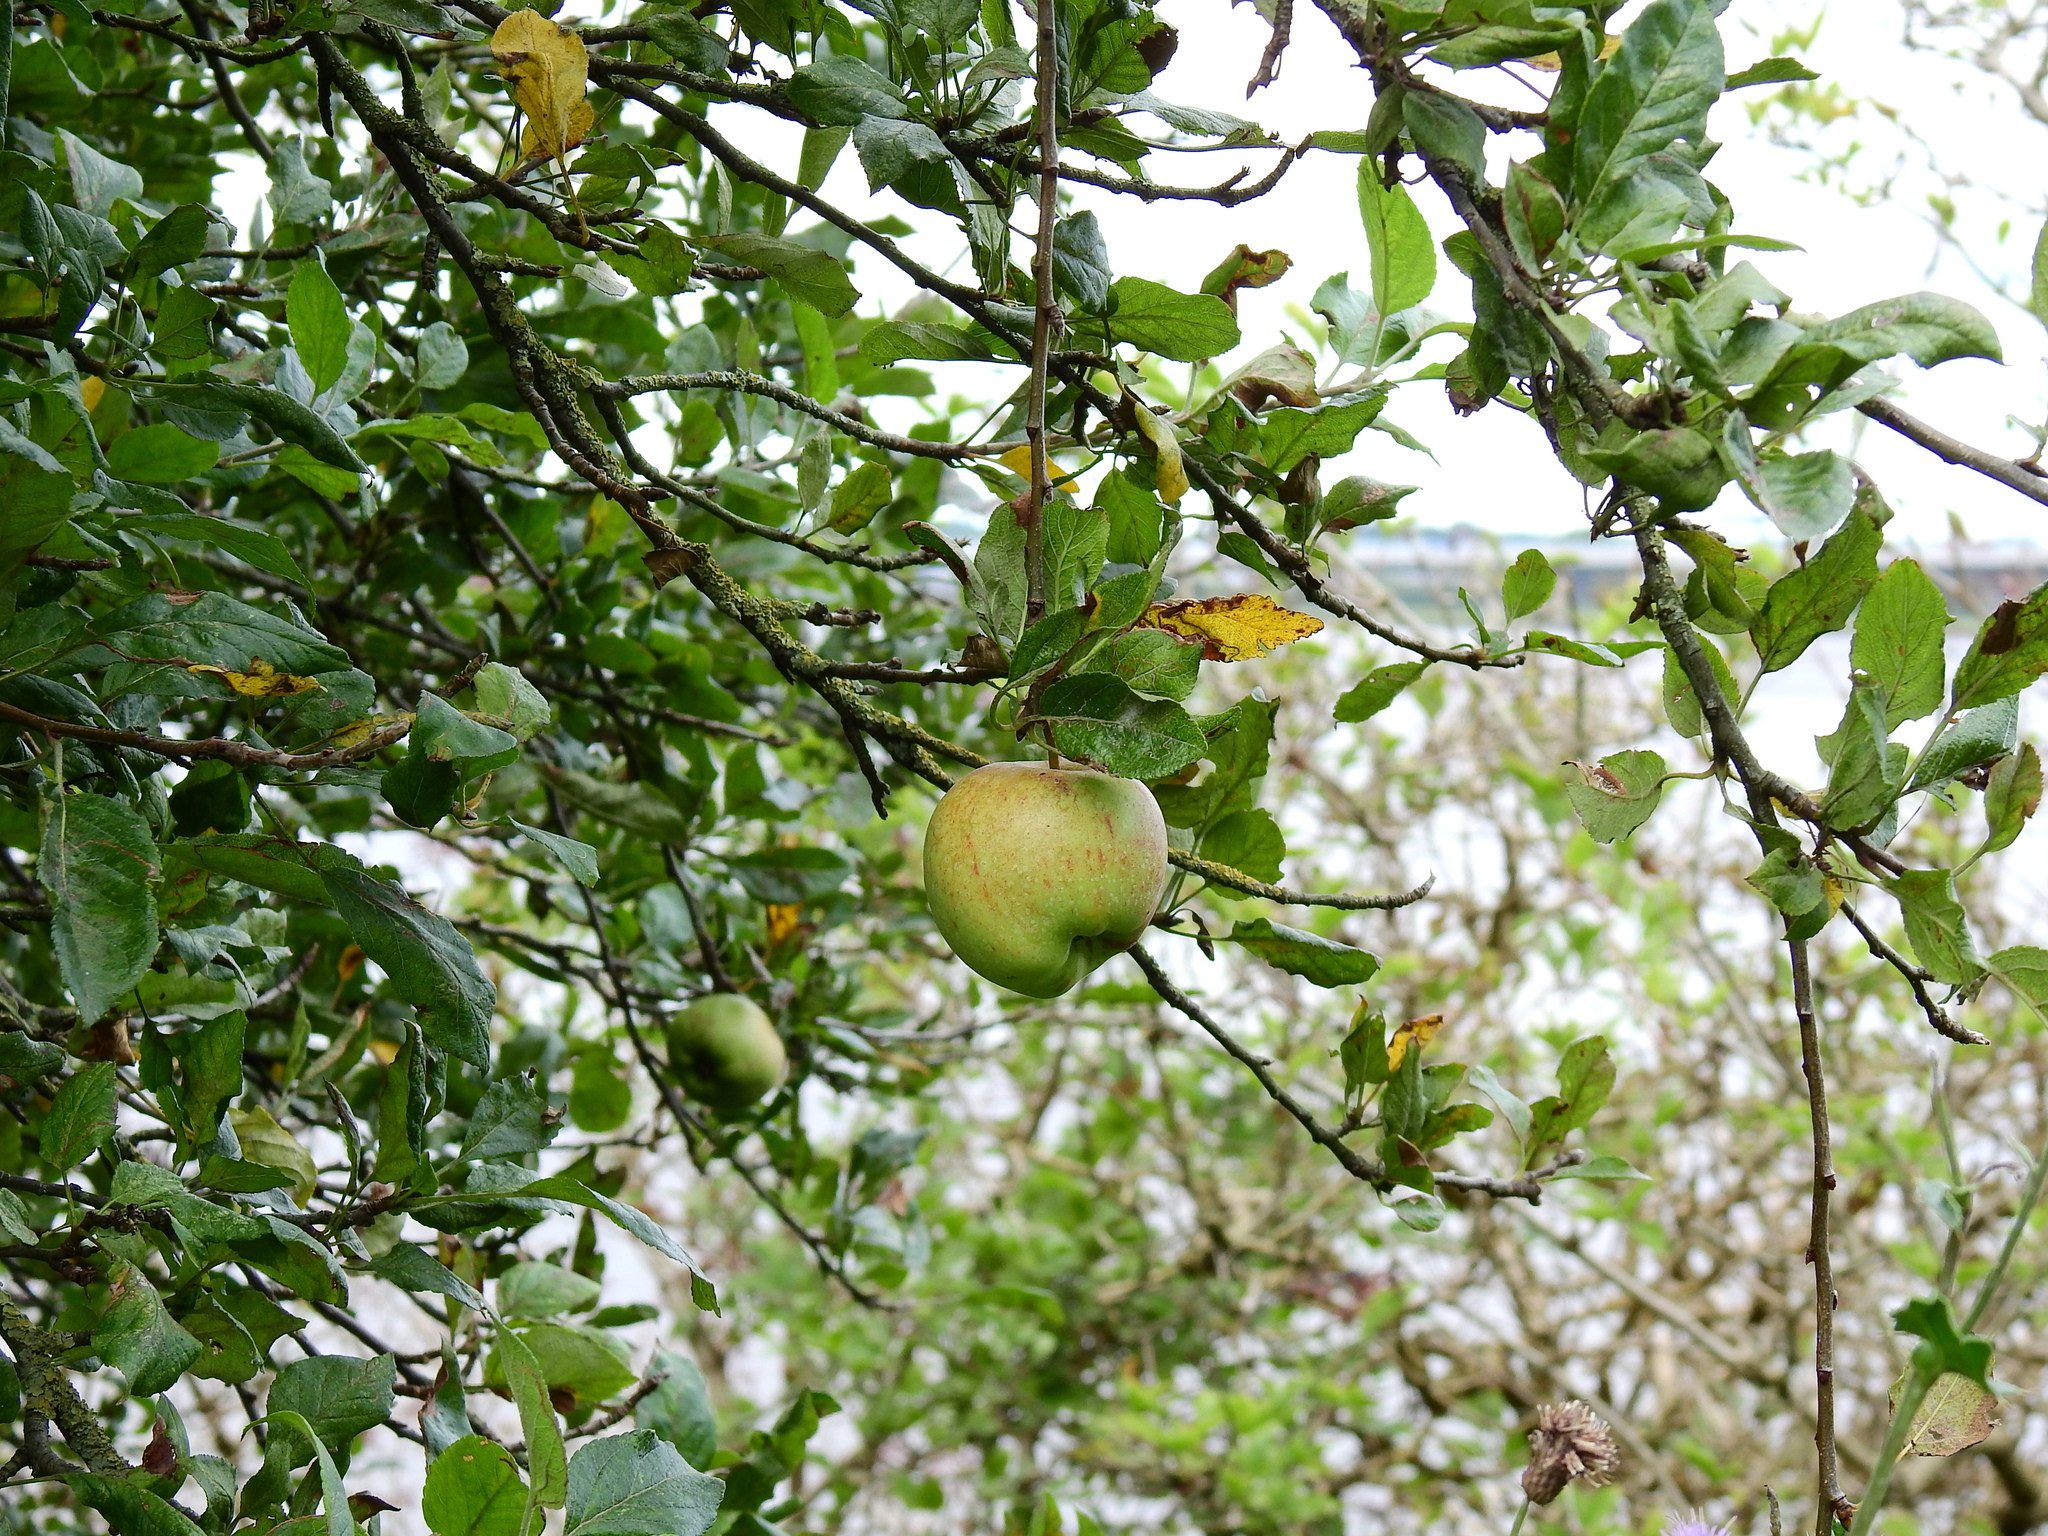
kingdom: Plantae
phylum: Tracheophyta
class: Magnoliopsida
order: Rosales
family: Rosaceae
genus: Malus
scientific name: Malus domestica
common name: Apple
